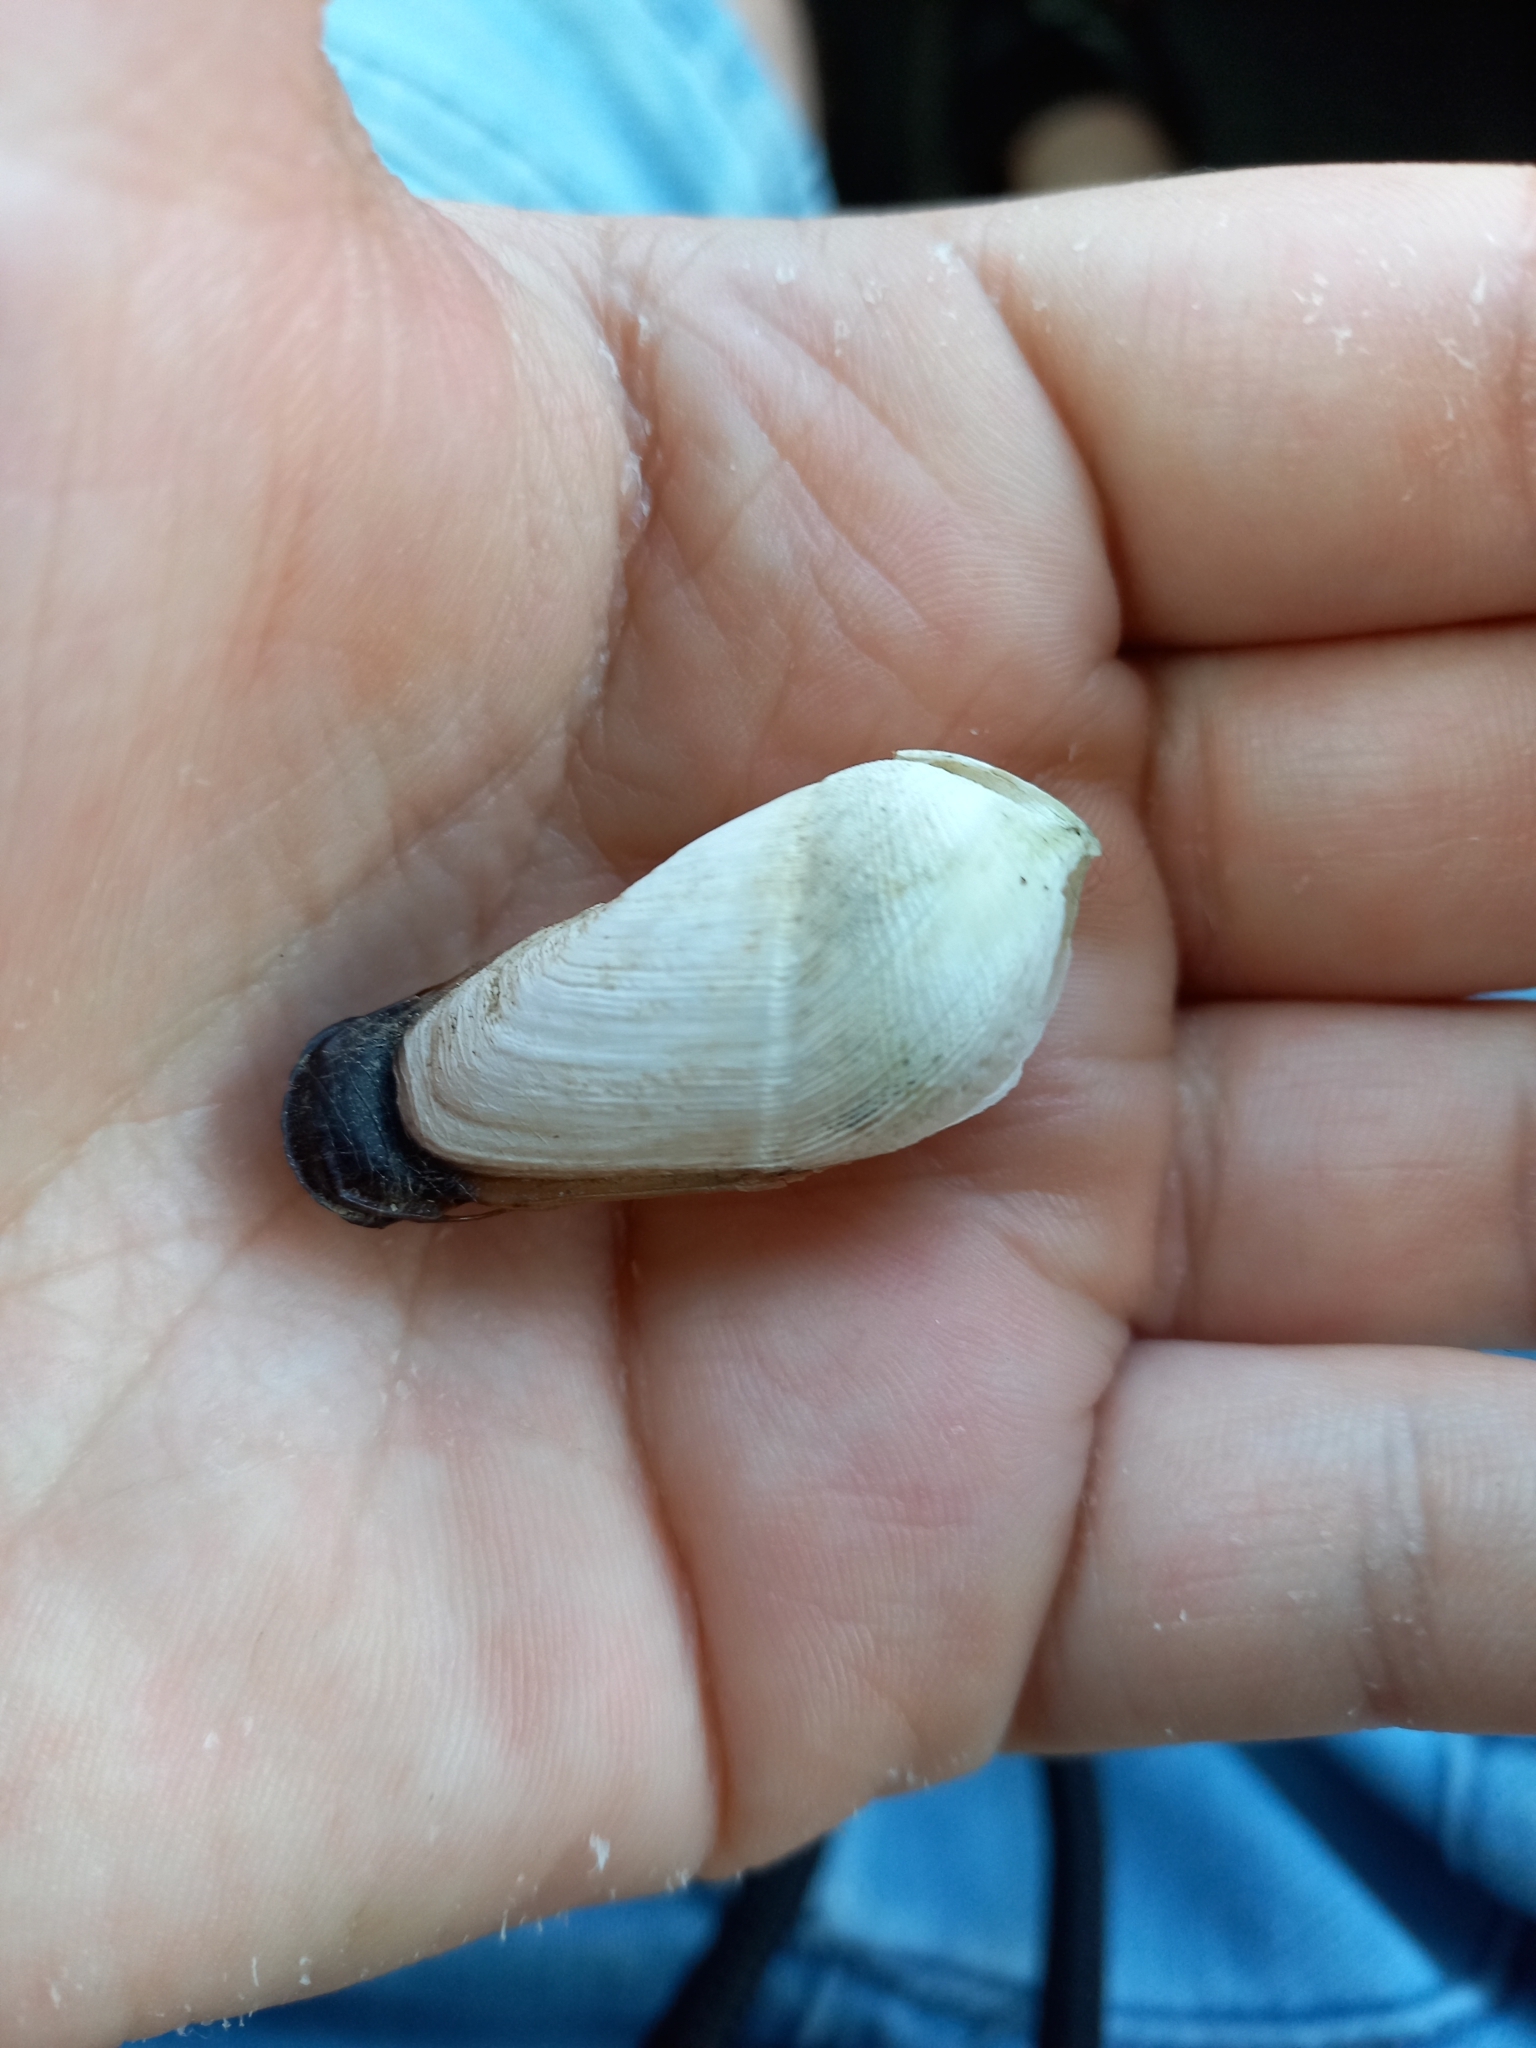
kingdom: Animalia
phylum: Mollusca
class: Bivalvia
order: Myida
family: Pholadidae
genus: Pholadidea
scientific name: Pholadidea suteri
